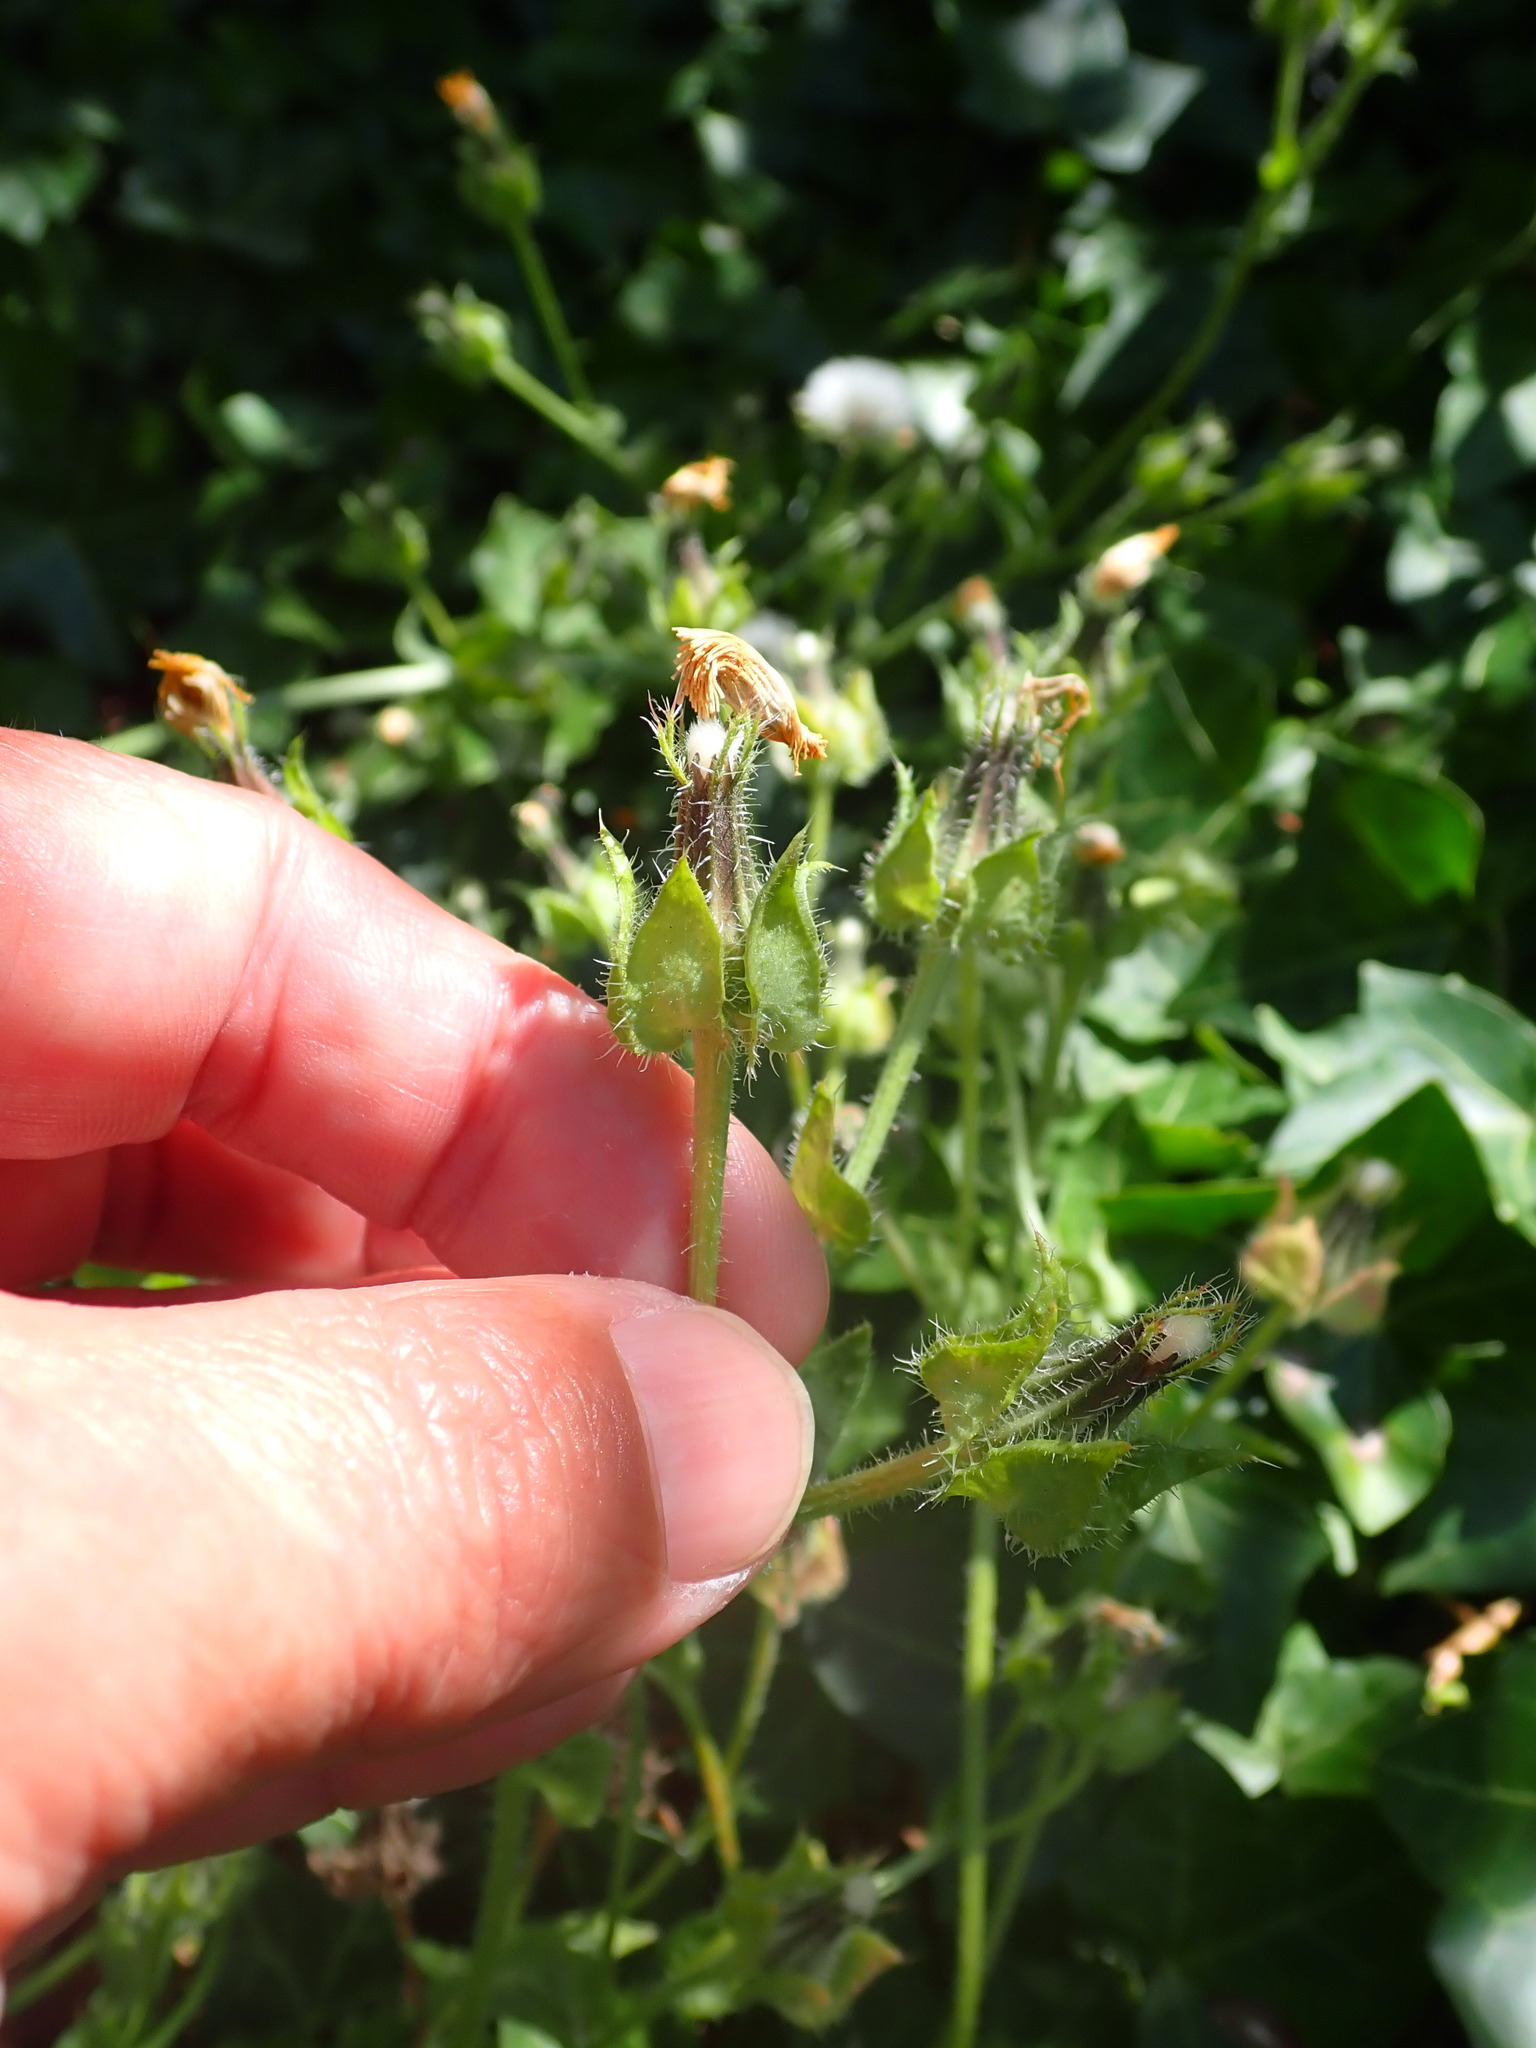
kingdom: Plantae
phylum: Tracheophyta
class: Magnoliopsida
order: Asterales
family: Asteraceae
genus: Helminthotheca
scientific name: Helminthotheca echioides
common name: Ox-tongue
